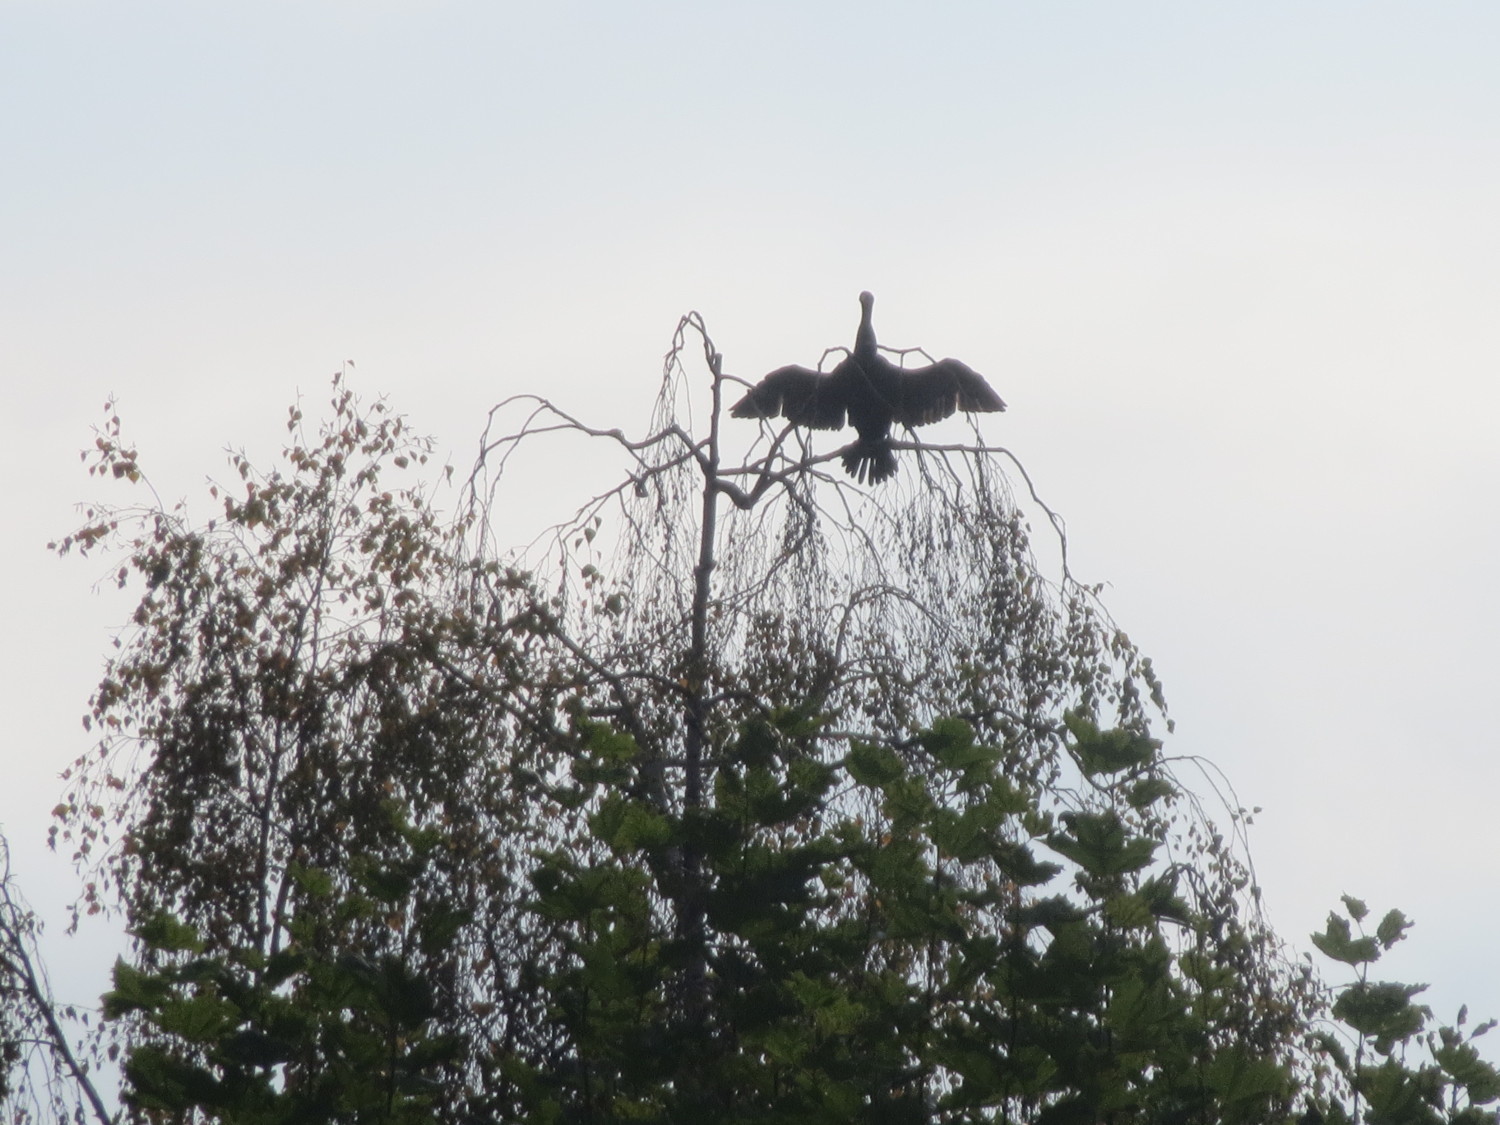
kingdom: Animalia
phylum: Chordata
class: Aves
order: Suliformes
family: Phalacrocoracidae
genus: Phalacrocorax
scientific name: Phalacrocorax carbo
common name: Great cormorant
